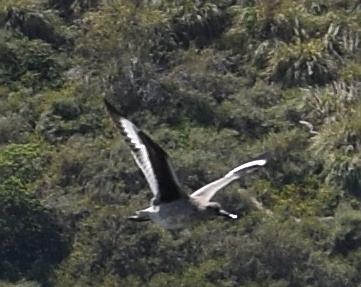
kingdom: Animalia
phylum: Chordata
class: Aves
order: Charadriiformes
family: Scolopacidae
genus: Tringa
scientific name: Tringa semipalmata
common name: Willet
